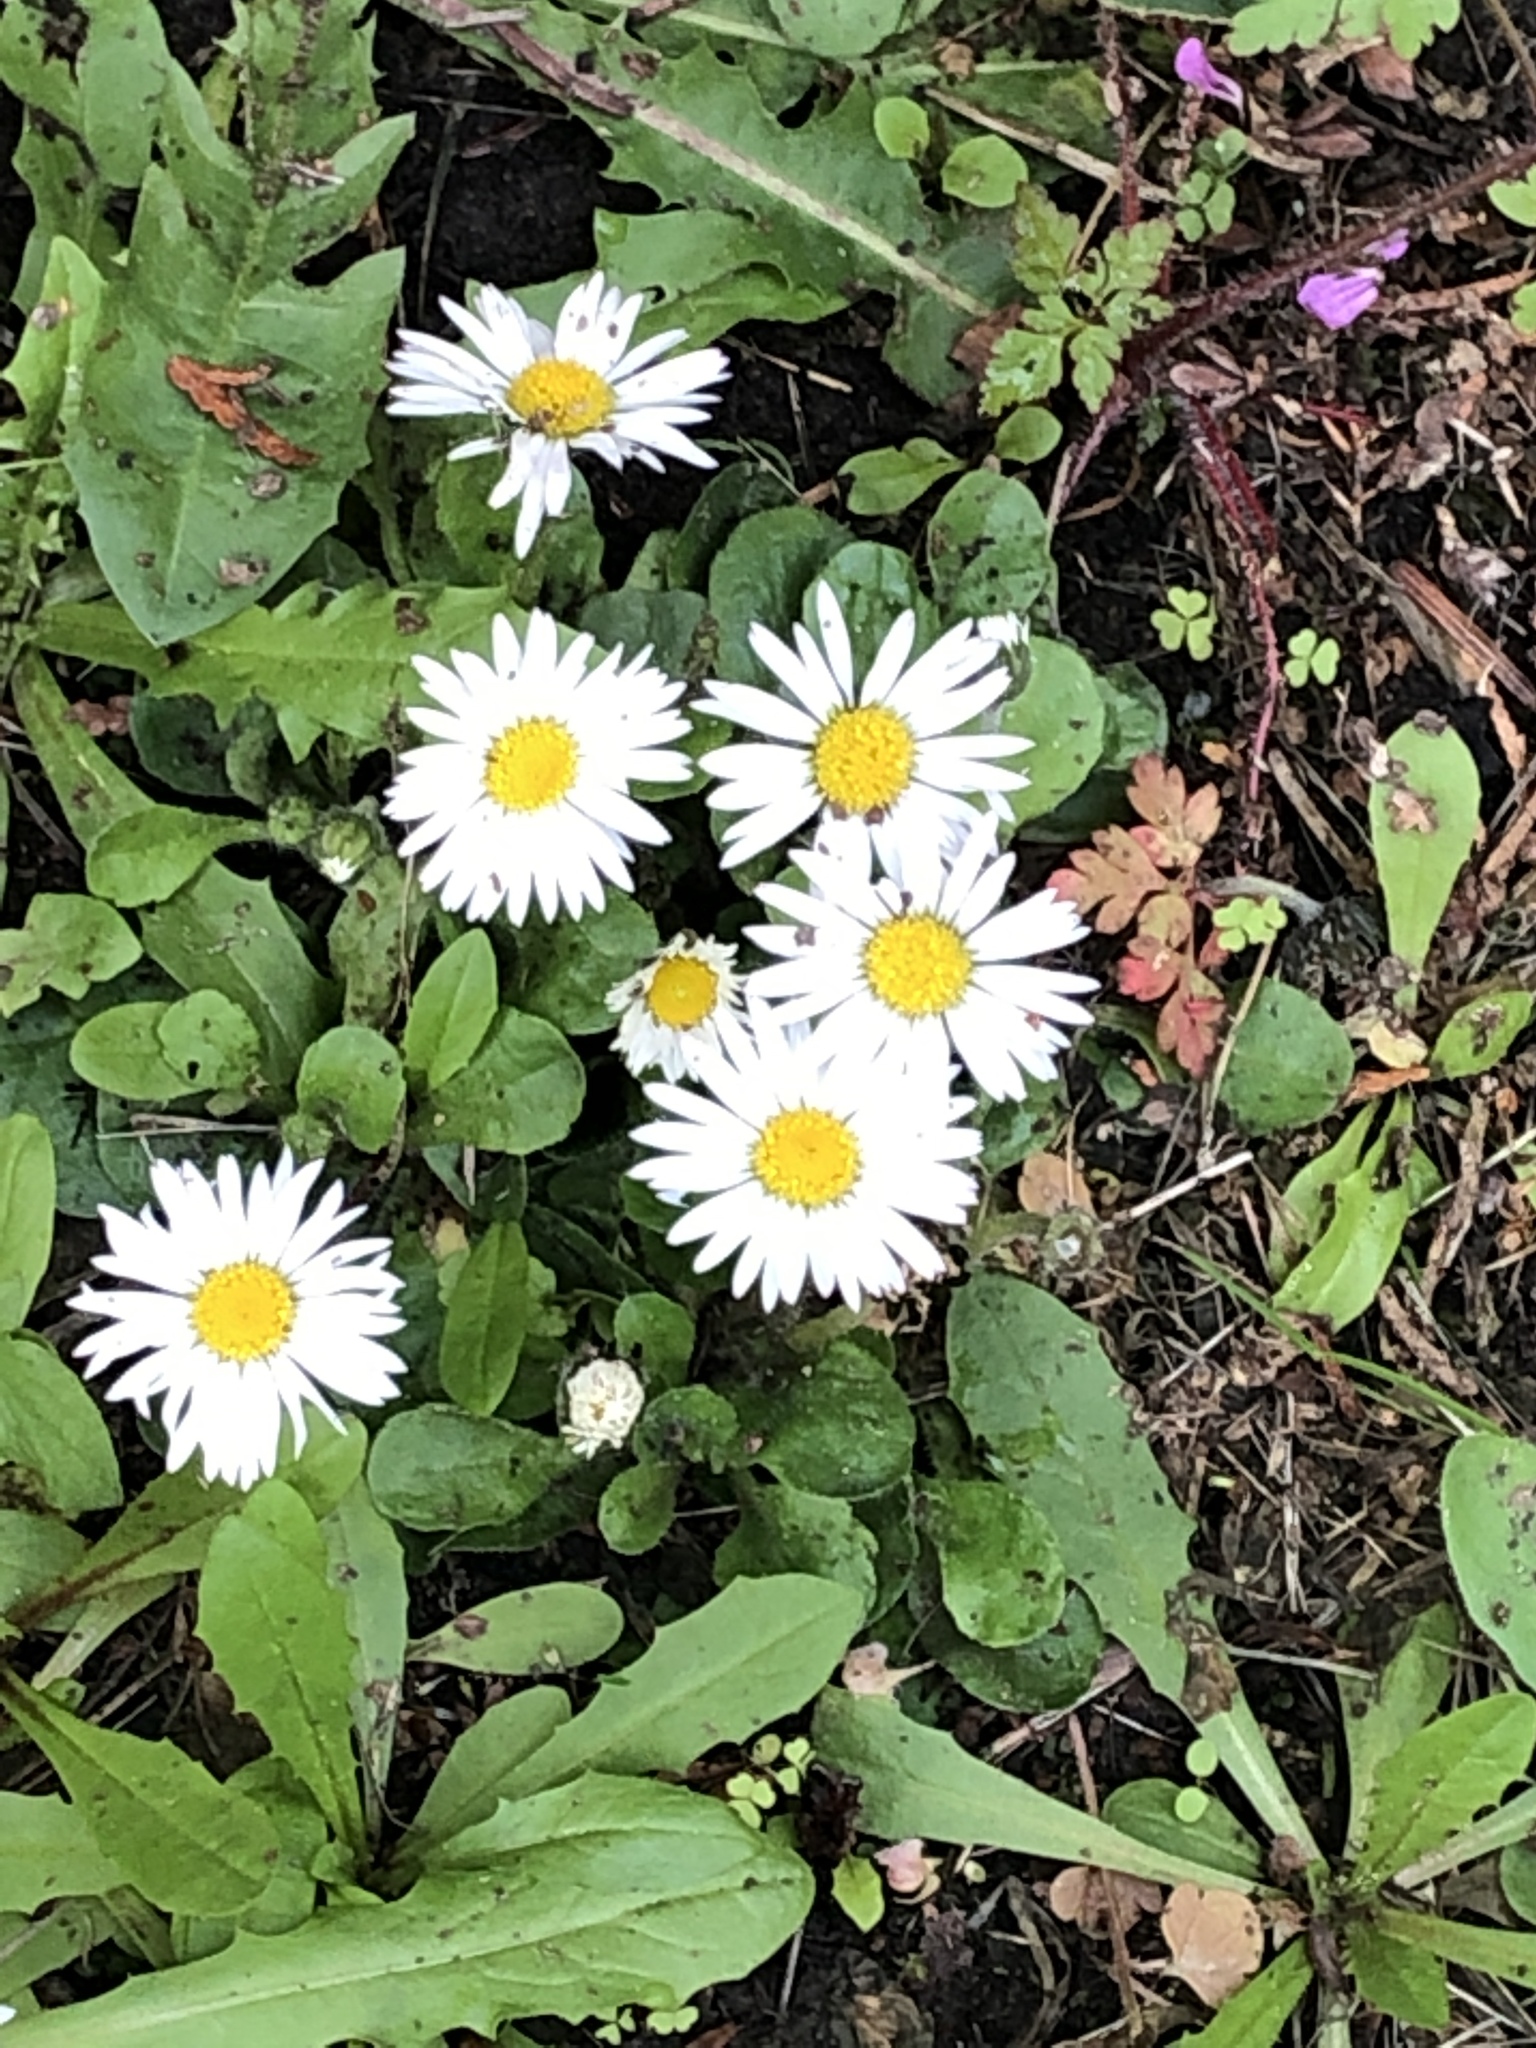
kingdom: Plantae
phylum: Tracheophyta
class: Magnoliopsida
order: Asterales
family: Asteraceae
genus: Bellis
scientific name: Bellis perennis
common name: Lawndaisy
